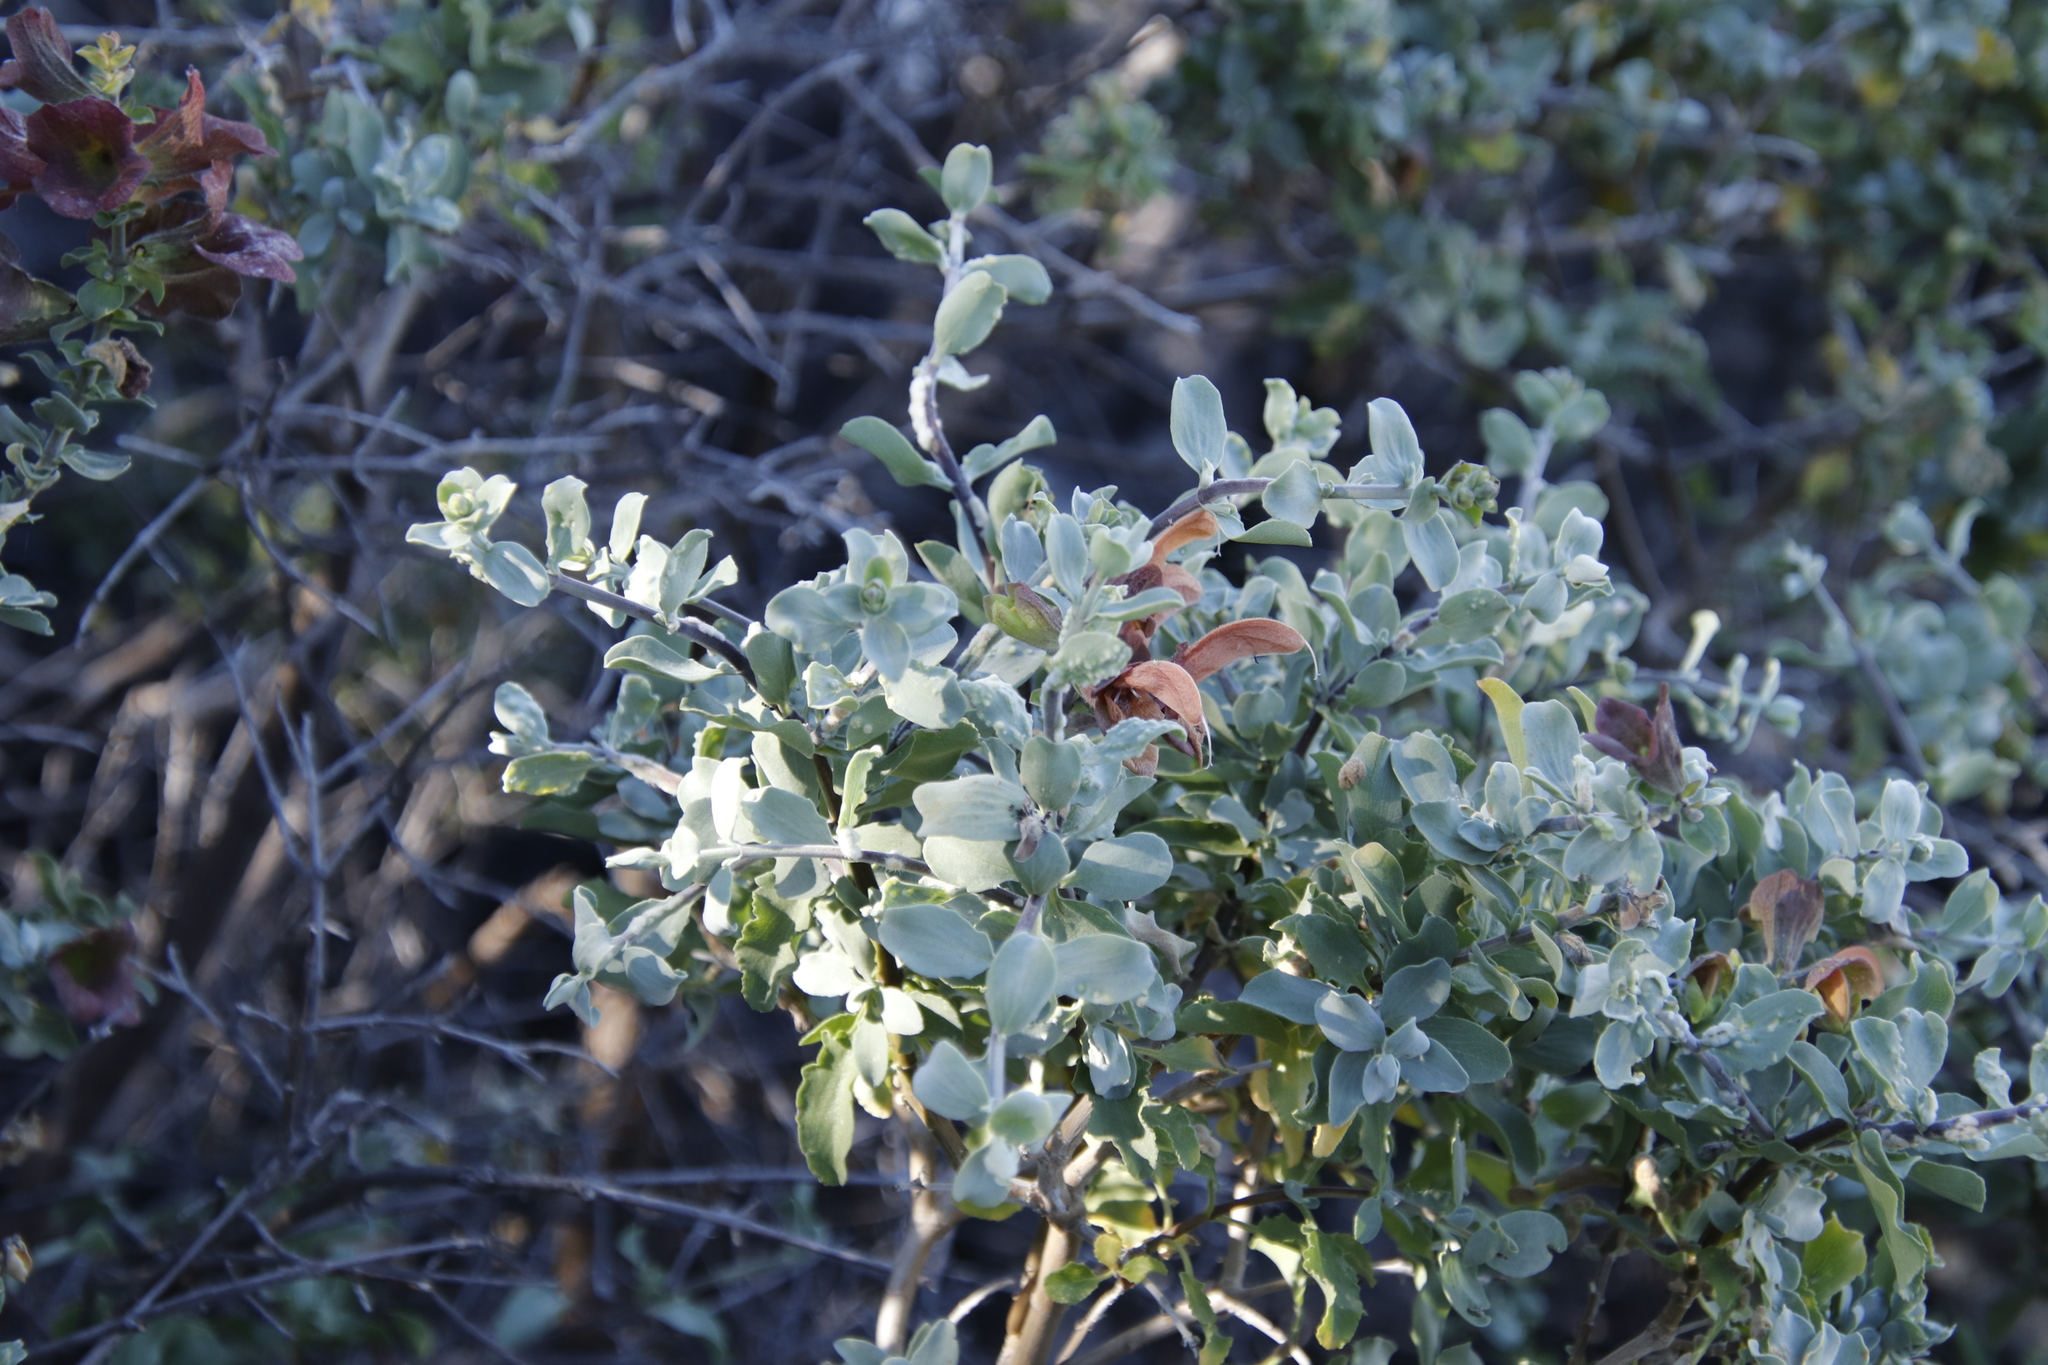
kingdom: Plantae
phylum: Tracheophyta
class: Magnoliopsida
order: Lamiales
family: Lamiaceae
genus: Salvia
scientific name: Salvia aurea
